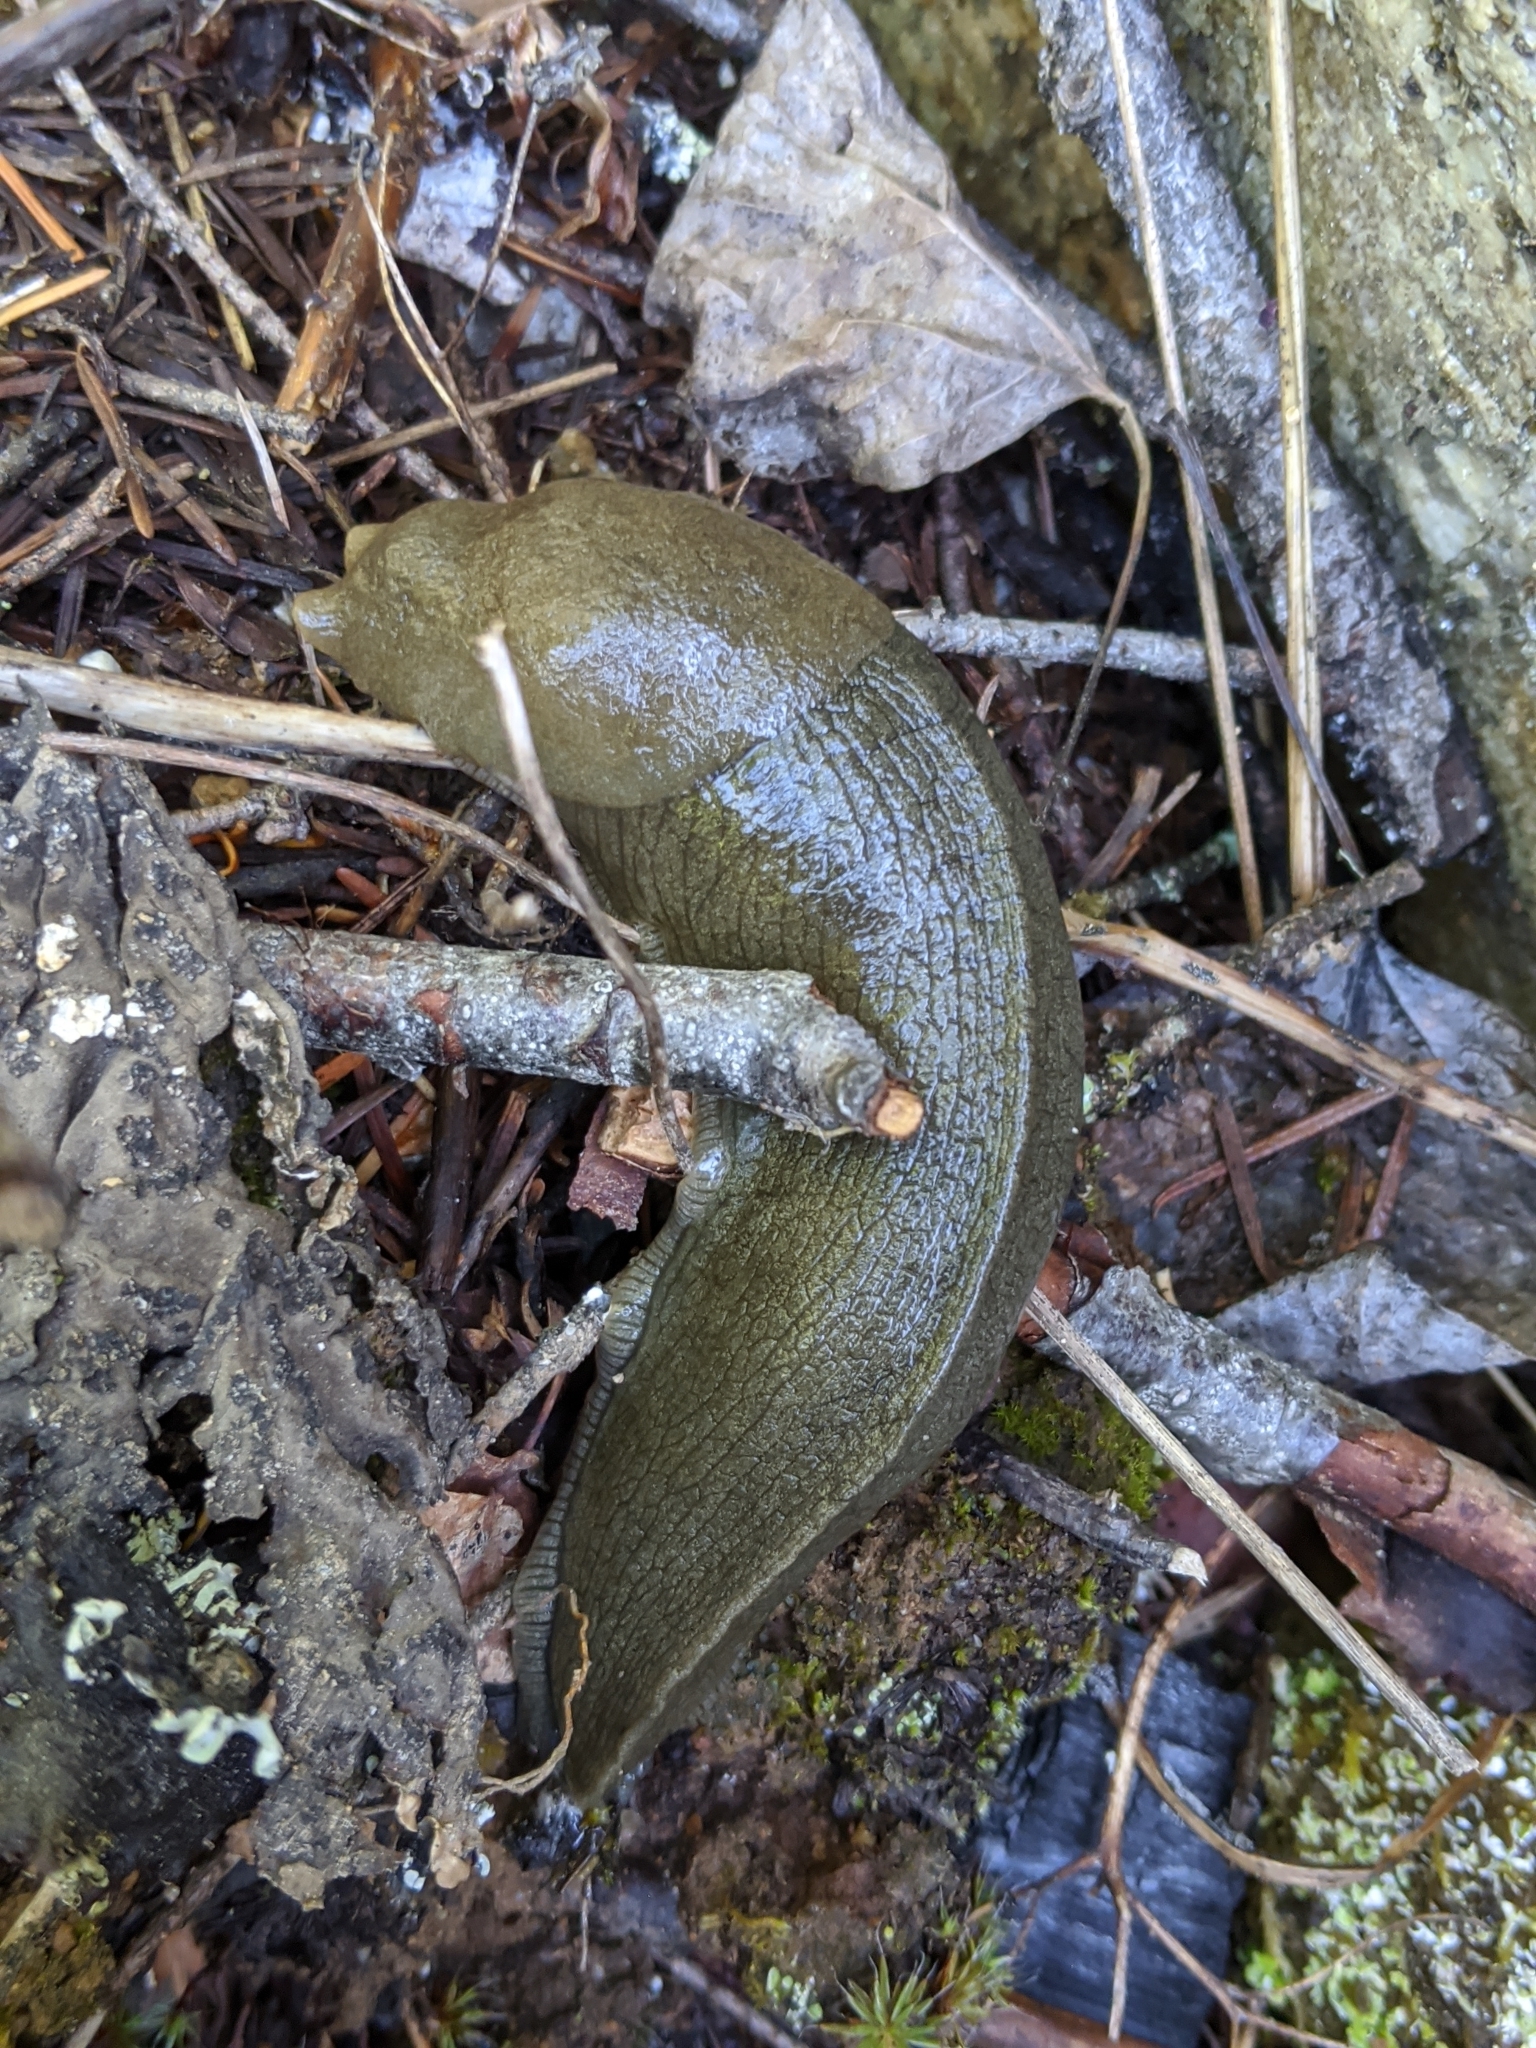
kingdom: Animalia
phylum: Mollusca
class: Gastropoda
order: Stylommatophora
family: Ariolimacidae
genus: Ariolimax
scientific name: Ariolimax columbianus
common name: Pacific banana slug
